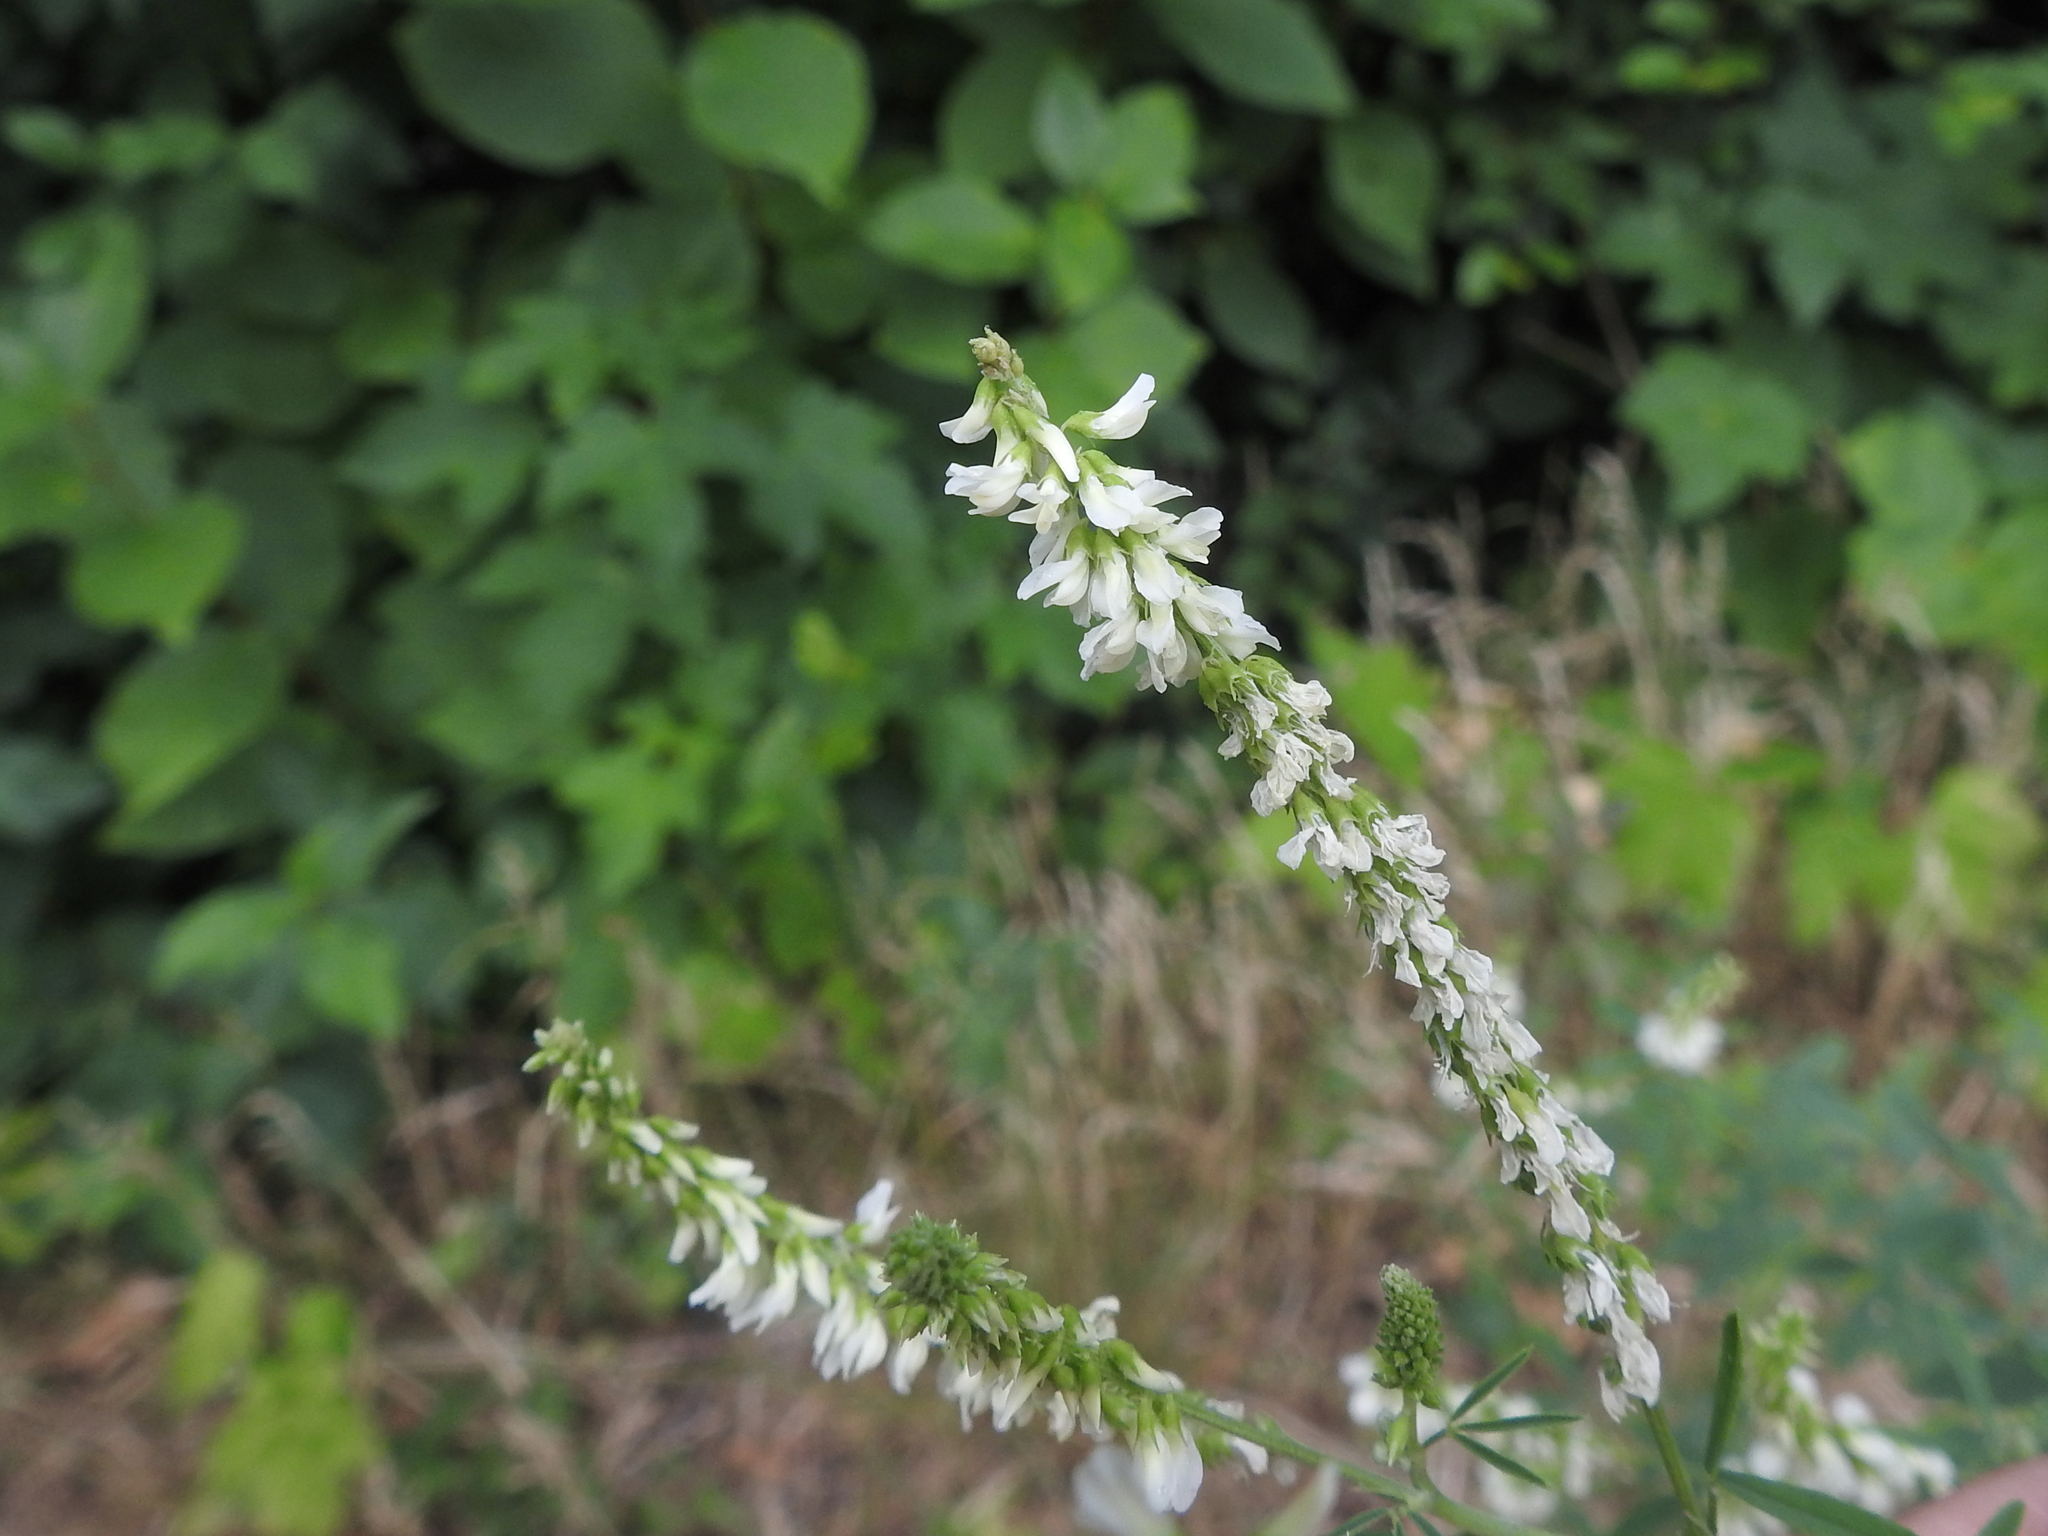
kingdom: Plantae
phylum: Tracheophyta
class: Magnoliopsida
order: Fabales
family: Fabaceae
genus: Melilotus
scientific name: Melilotus albus
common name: White melilot
